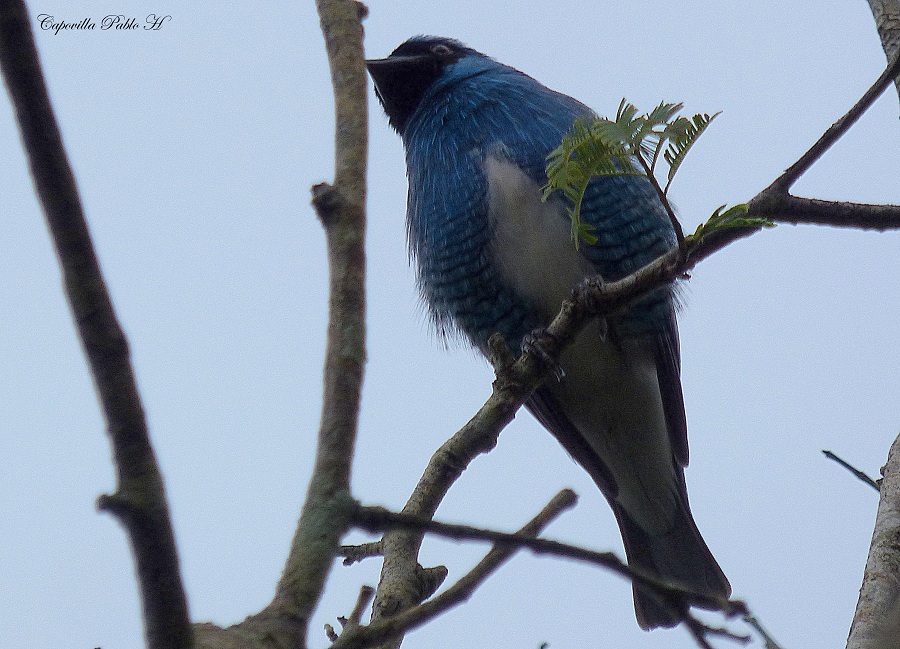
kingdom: Animalia
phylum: Chordata
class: Aves
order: Passeriformes
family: Thraupidae
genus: Tersina
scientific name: Tersina viridis
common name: Swallow tanager
